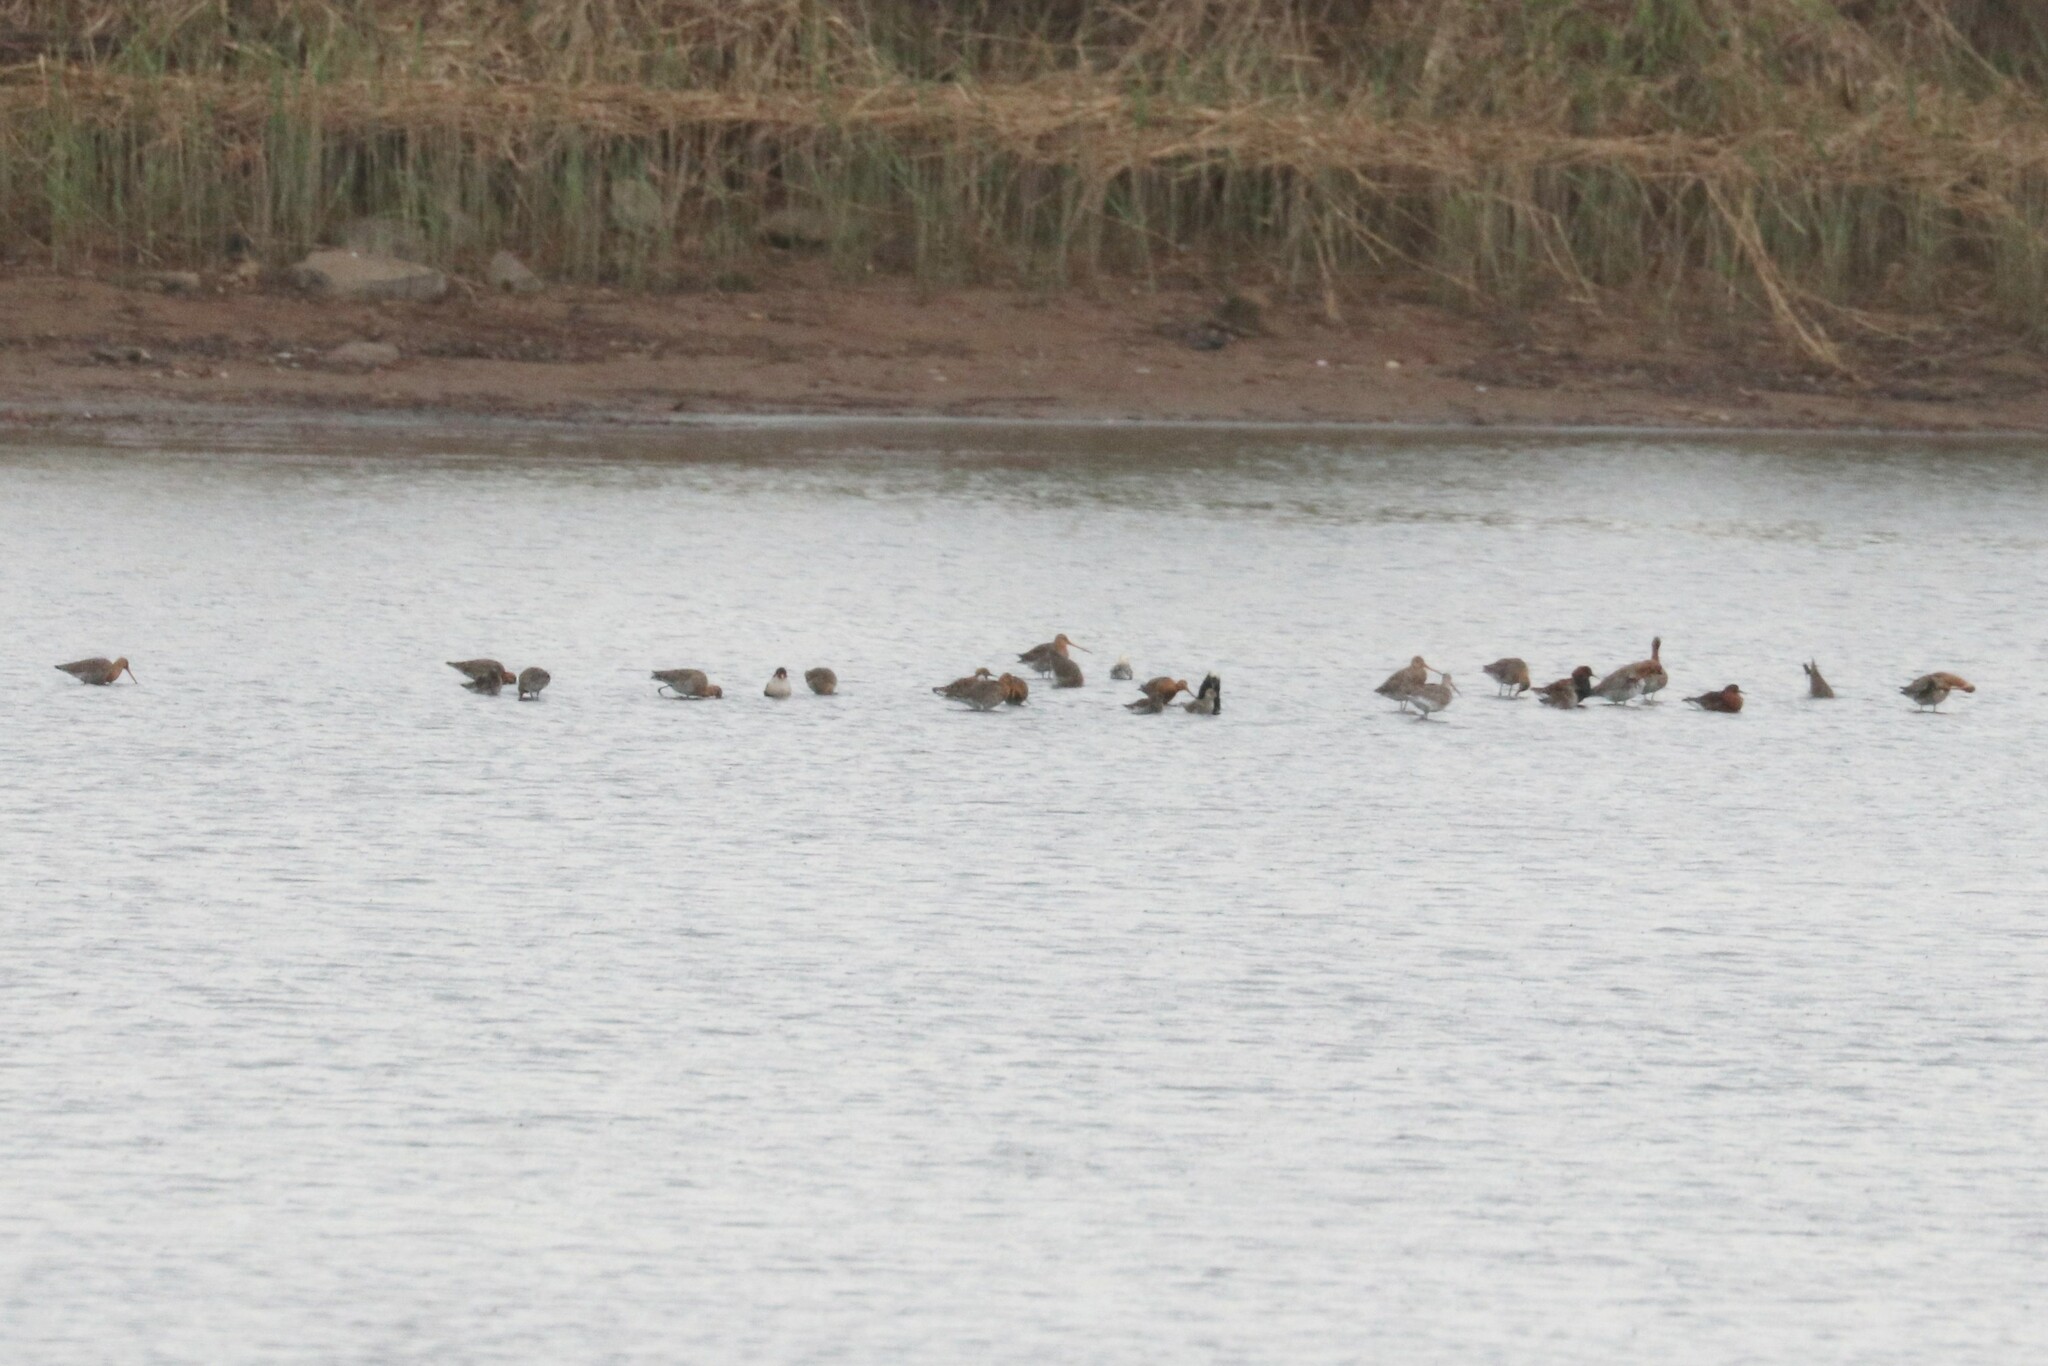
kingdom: Animalia
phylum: Chordata
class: Aves
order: Charadriiformes
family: Scolopacidae
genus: Limosa
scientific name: Limosa limosa
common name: Black-tailed godwit
